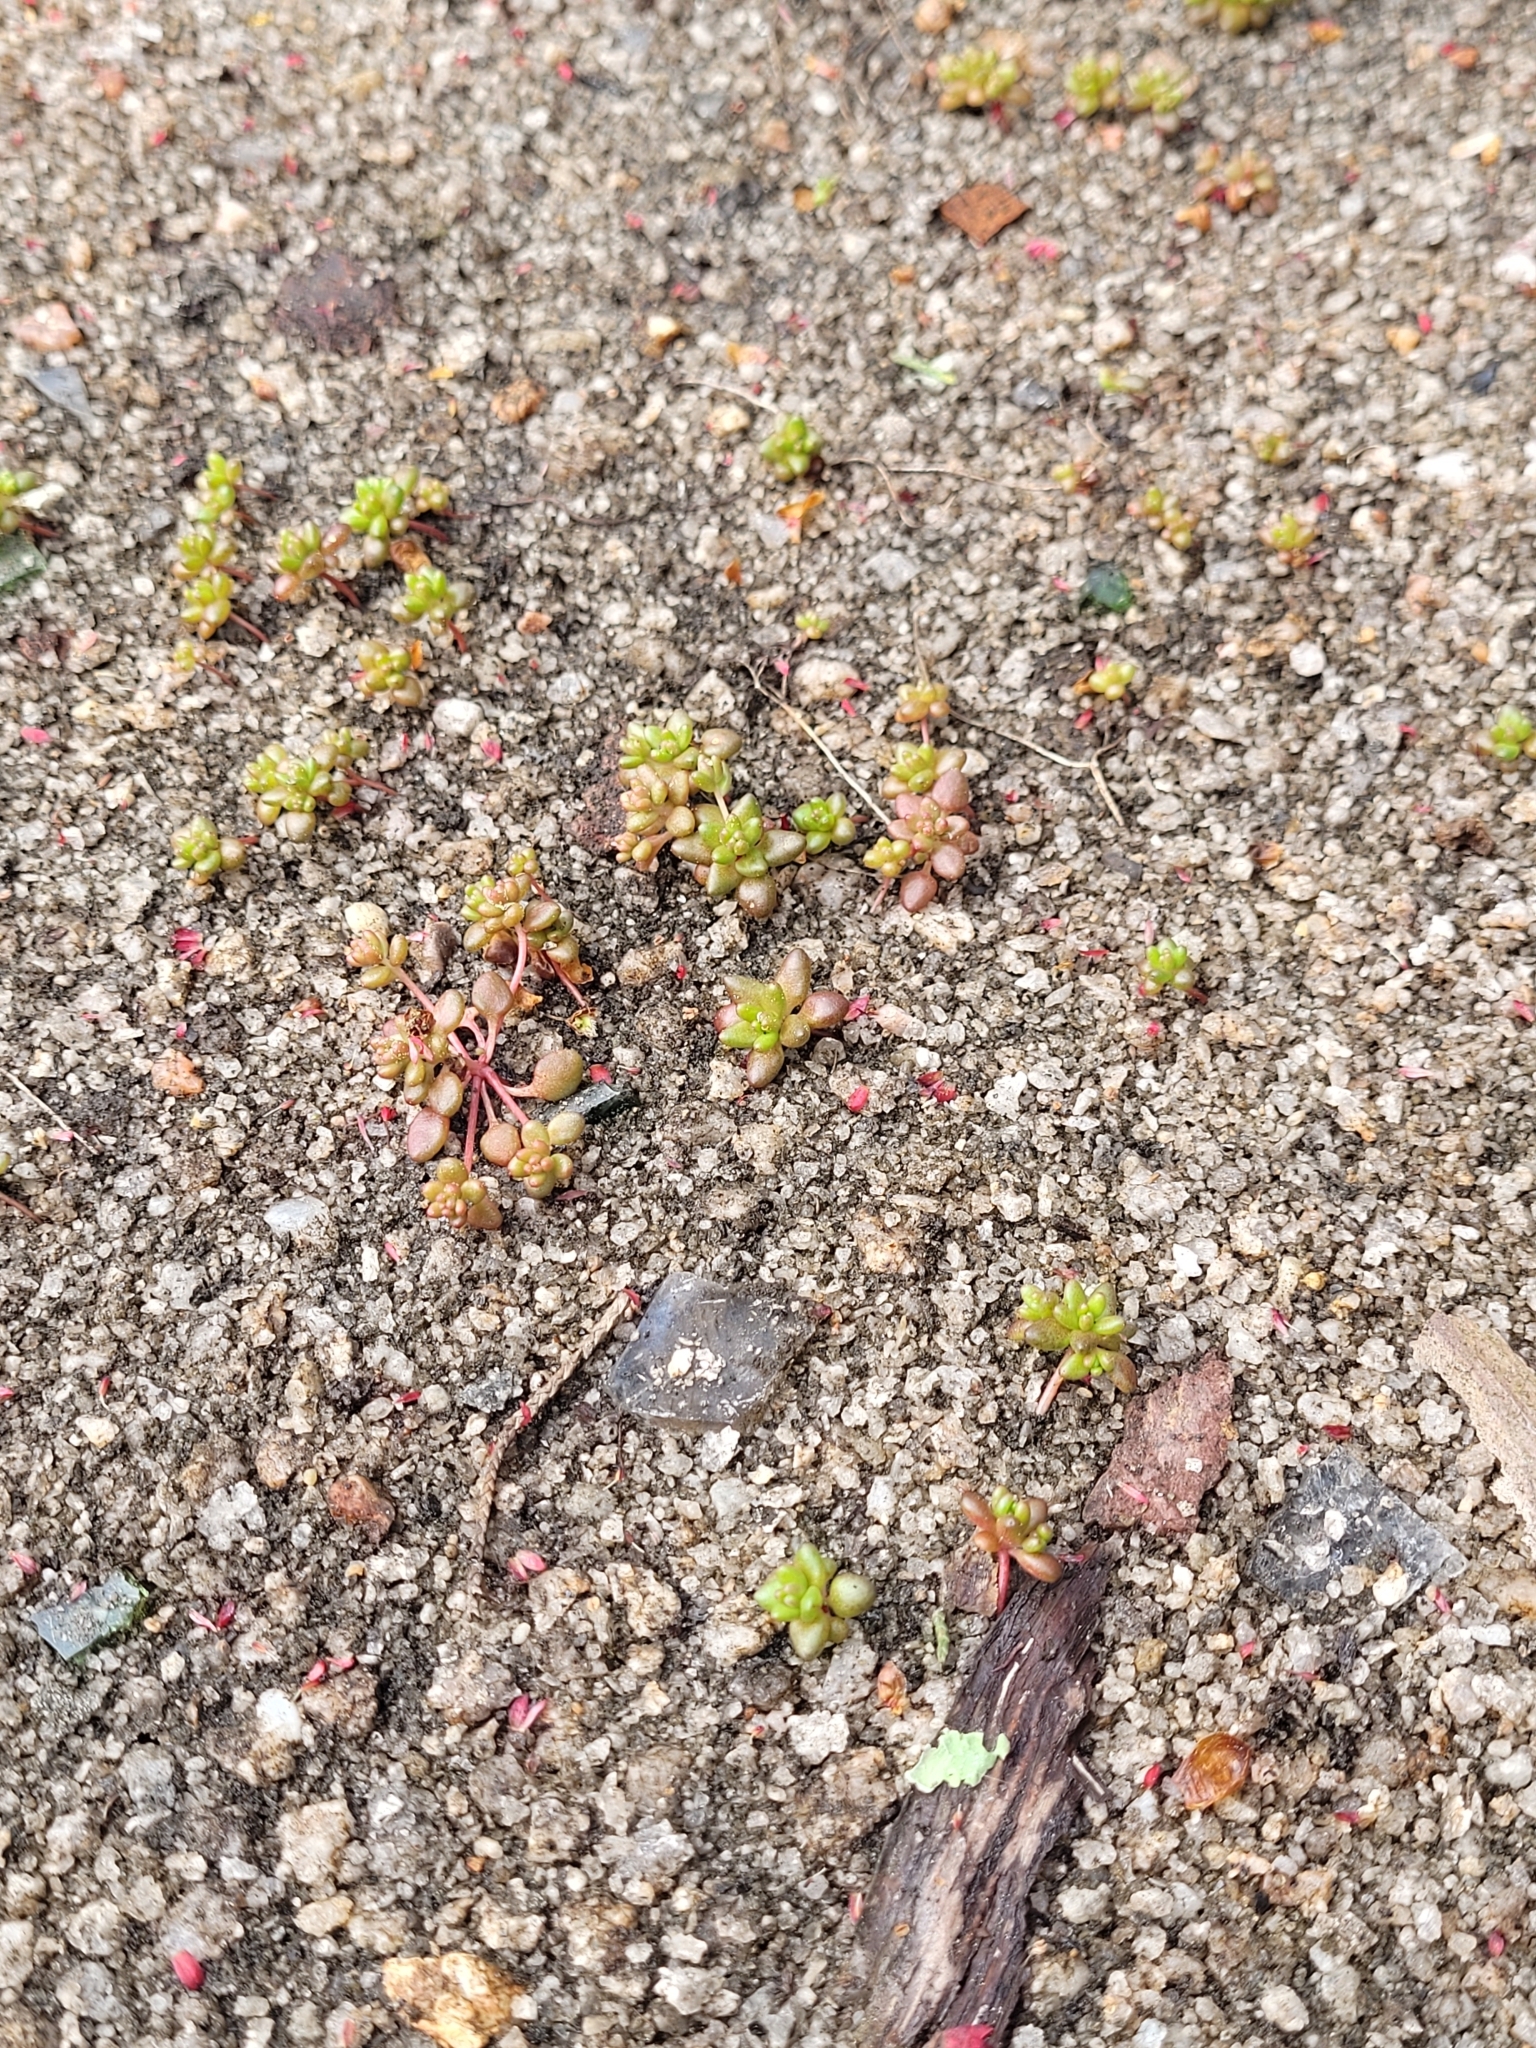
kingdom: Plantae
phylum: Tracheophyta
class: Magnoliopsida
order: Saxifragales
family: Crassulaceae
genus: Sedum
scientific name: Sedum smallii
